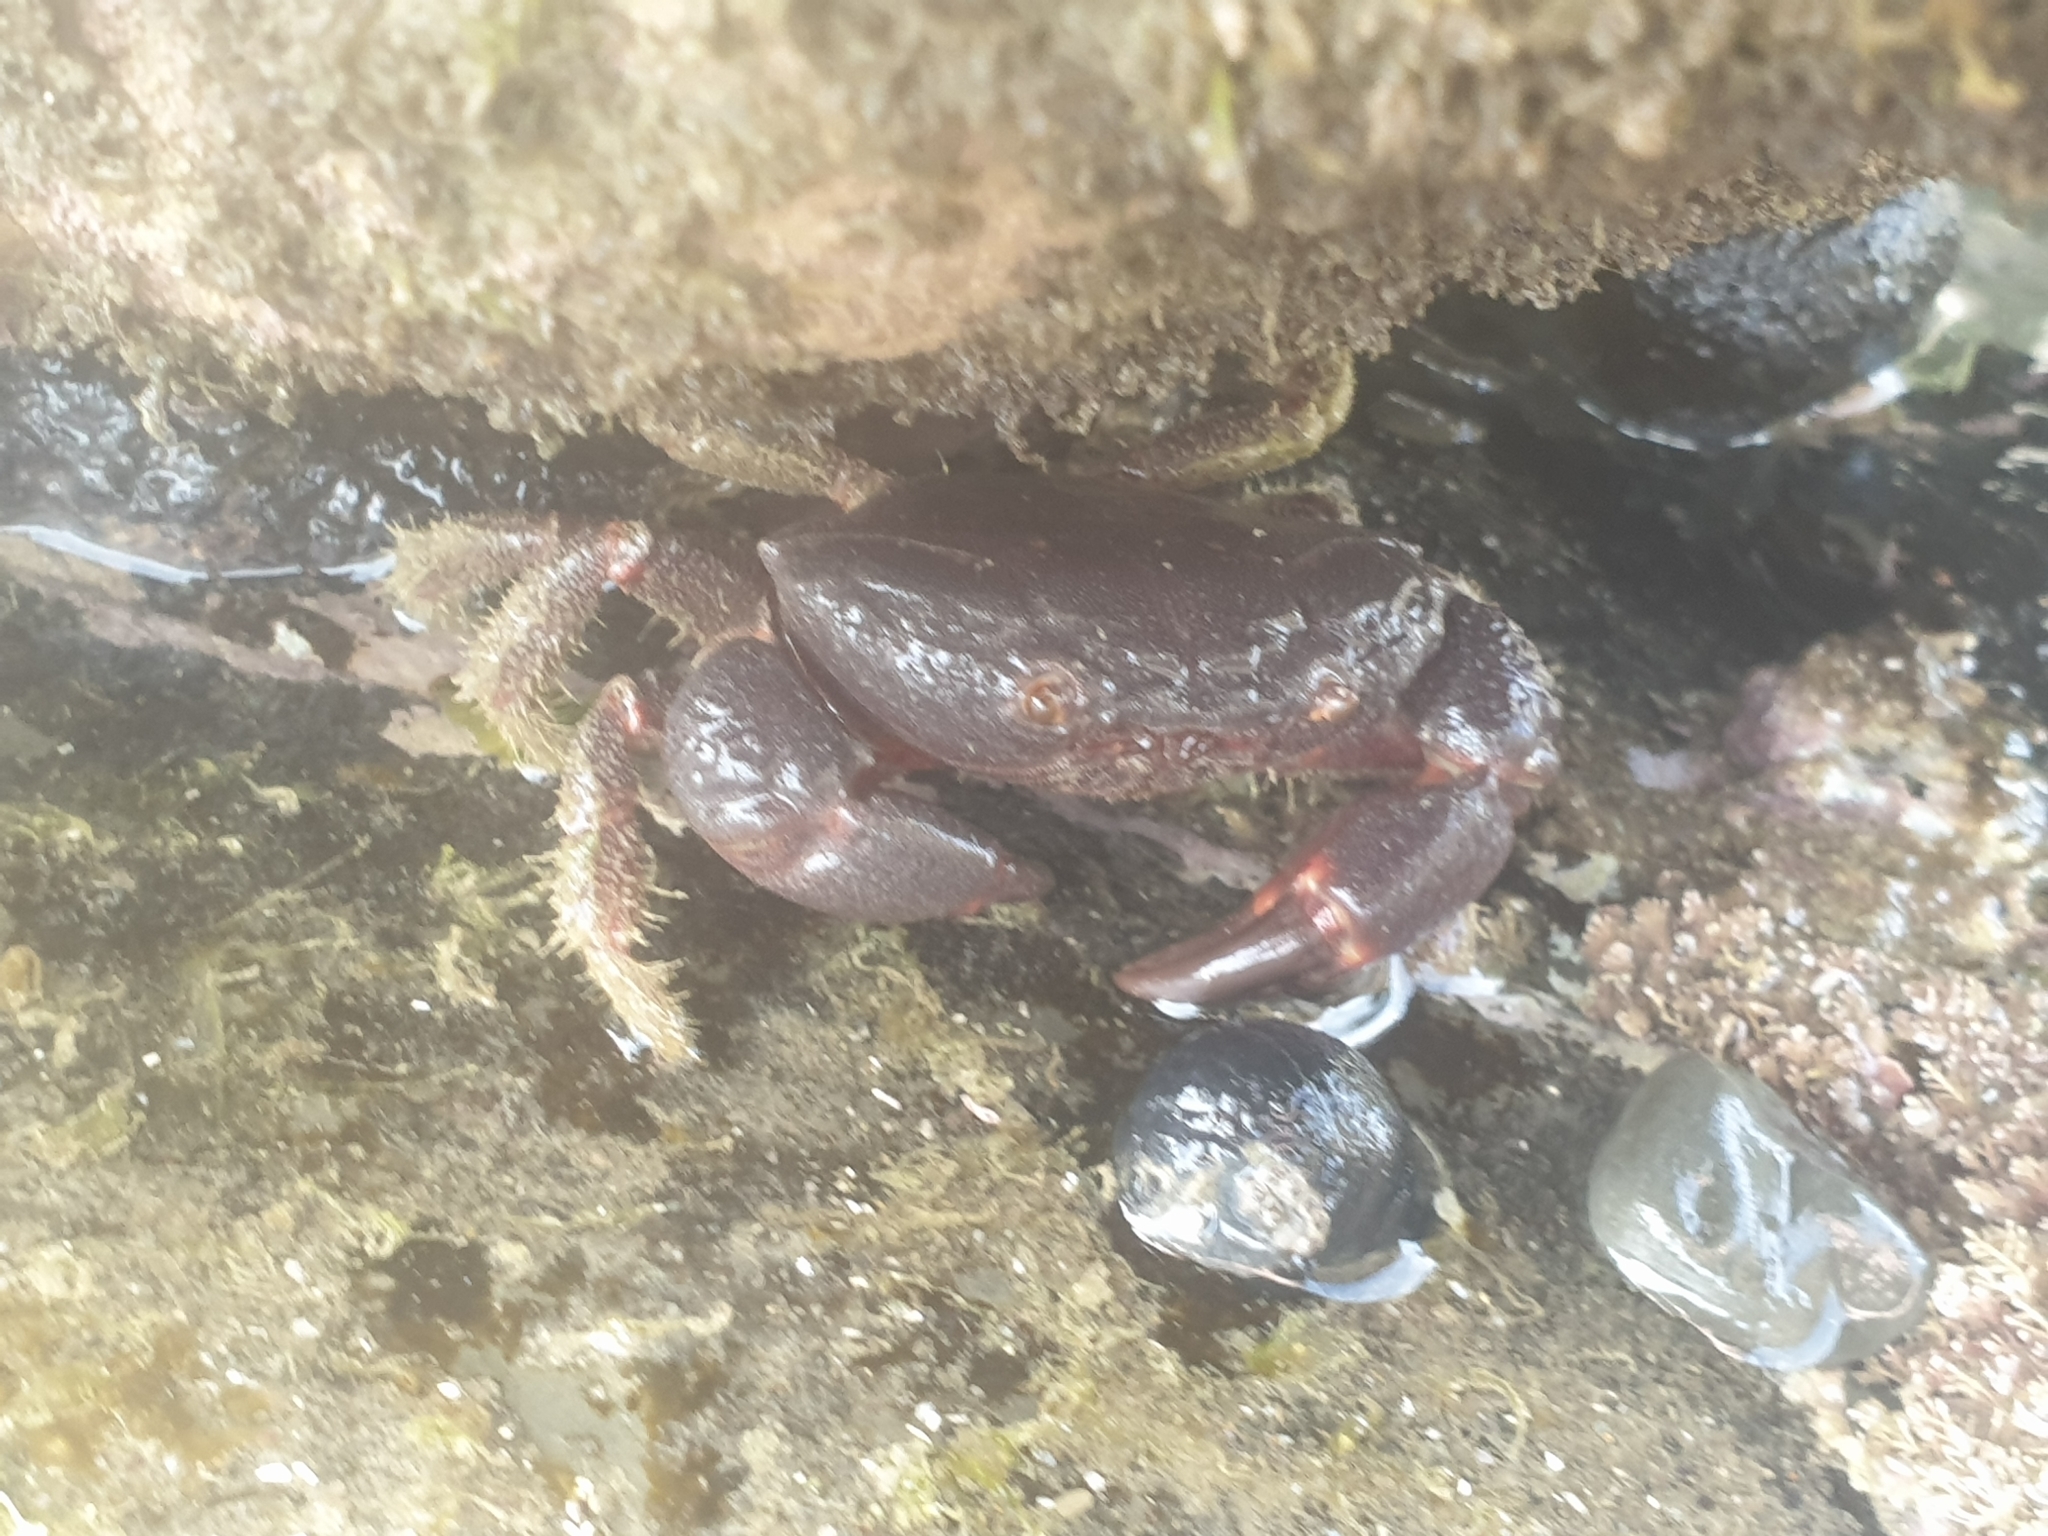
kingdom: Animalia
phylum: Arthropoda
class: Malacostraca
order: Decapoda
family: Oziidae
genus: Ozius
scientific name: Ozius deplanatus
